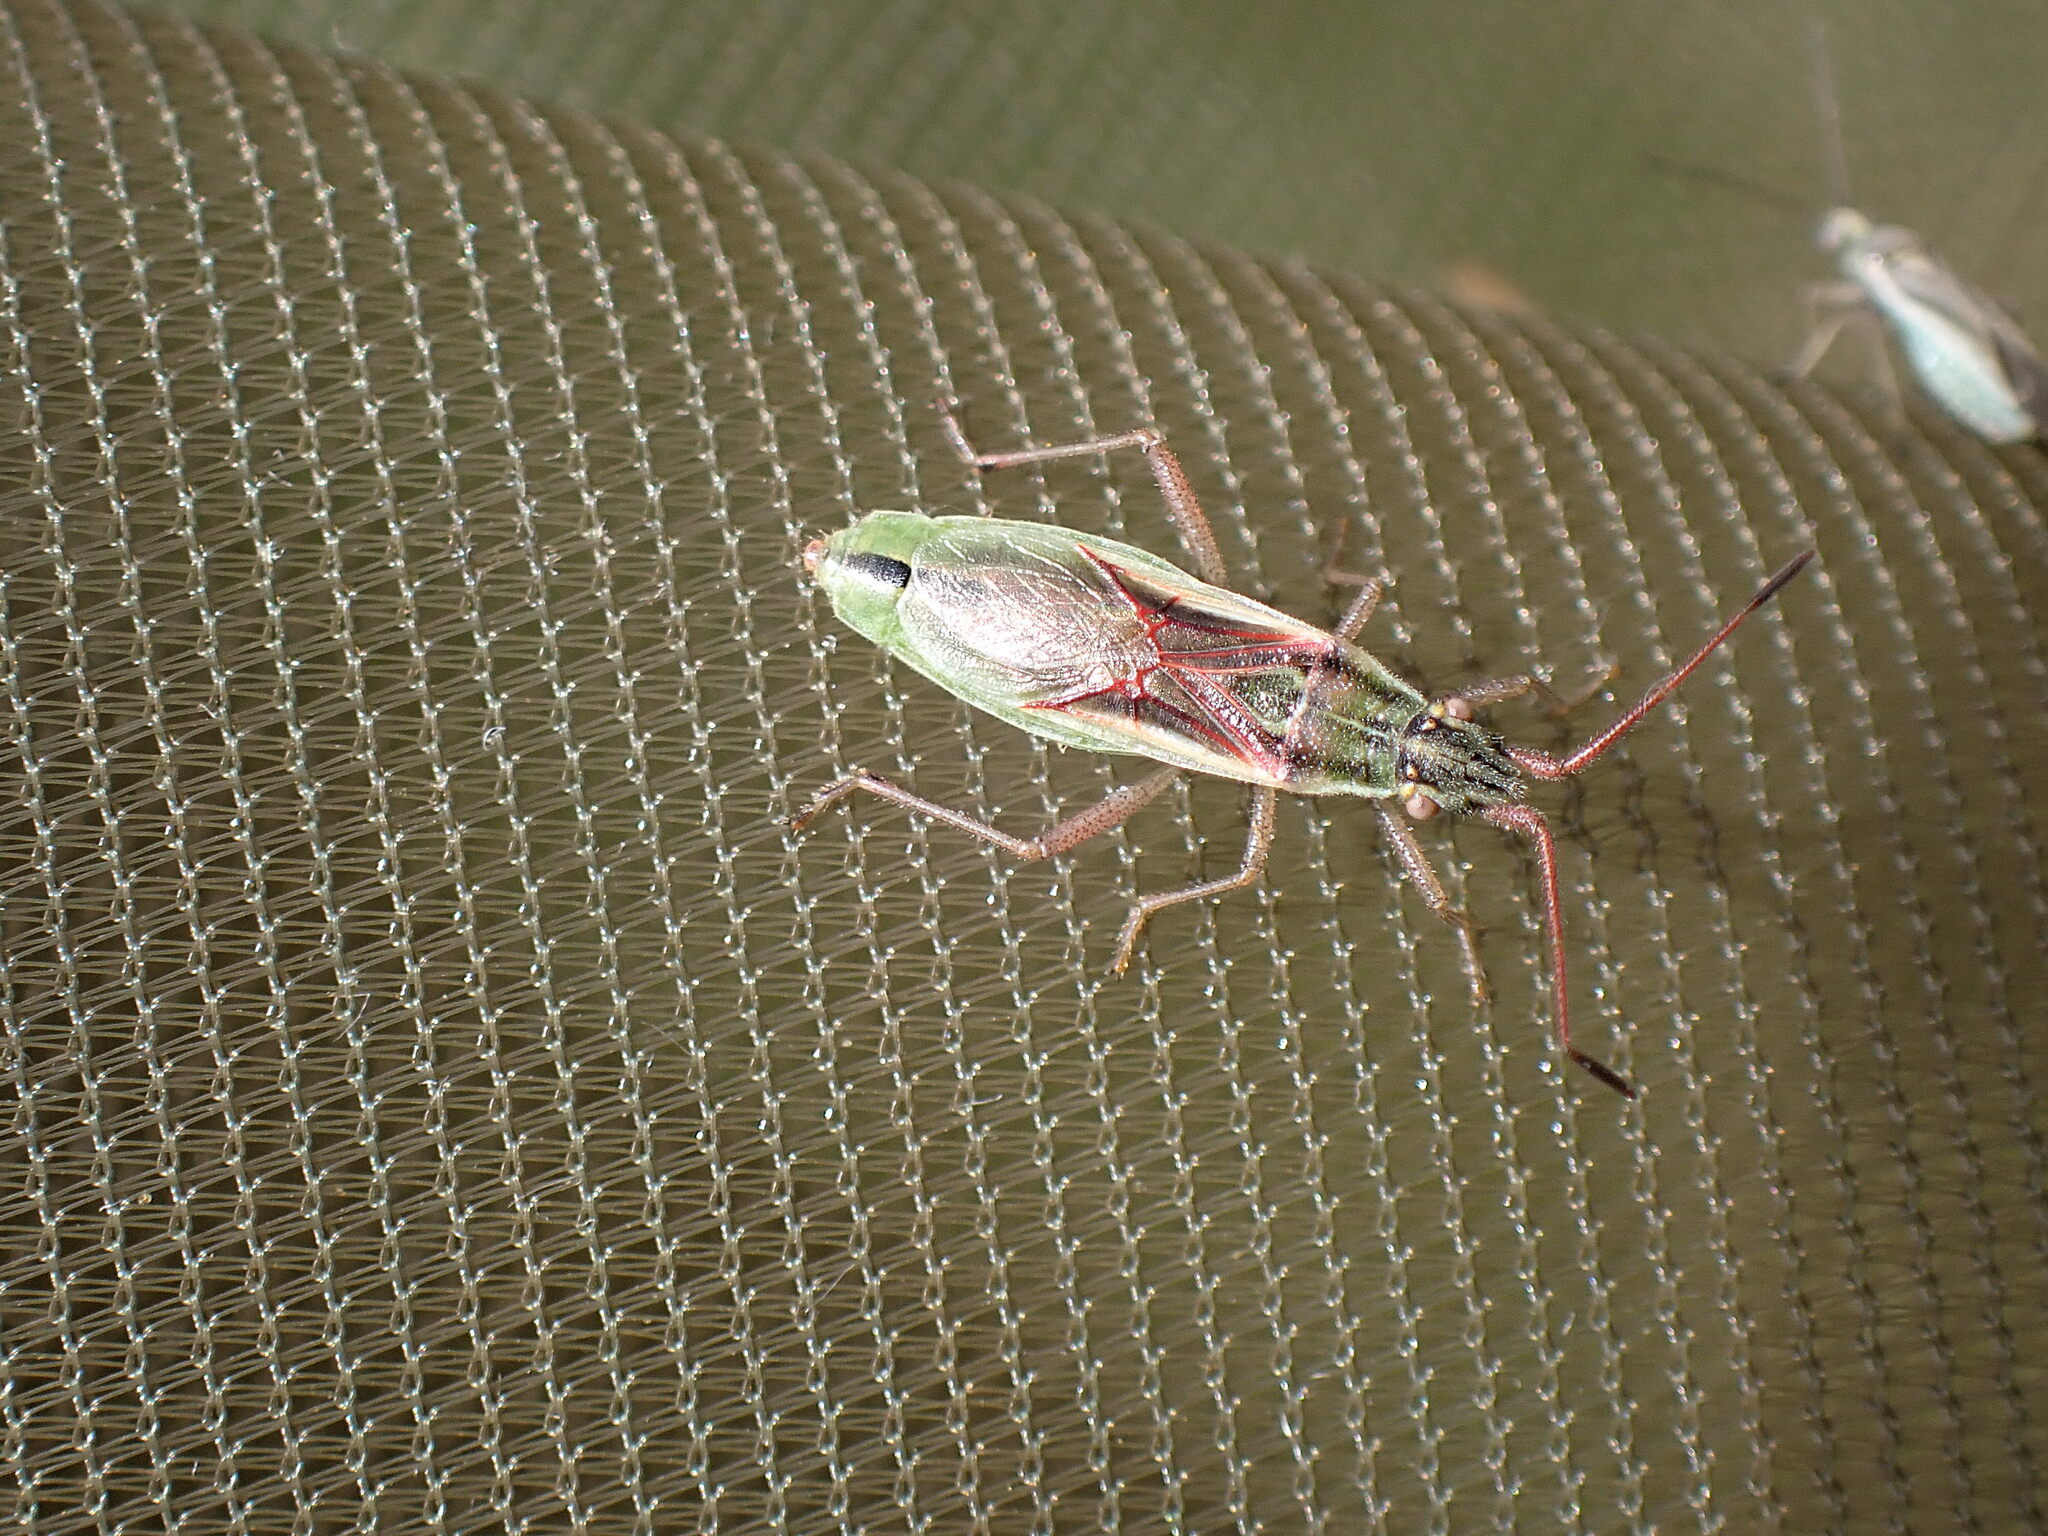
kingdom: Animalia
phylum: Arthropoda
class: Insecta
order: Hemiptera
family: Rhopalidae
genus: Myrmus
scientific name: Myrmus miriformis
